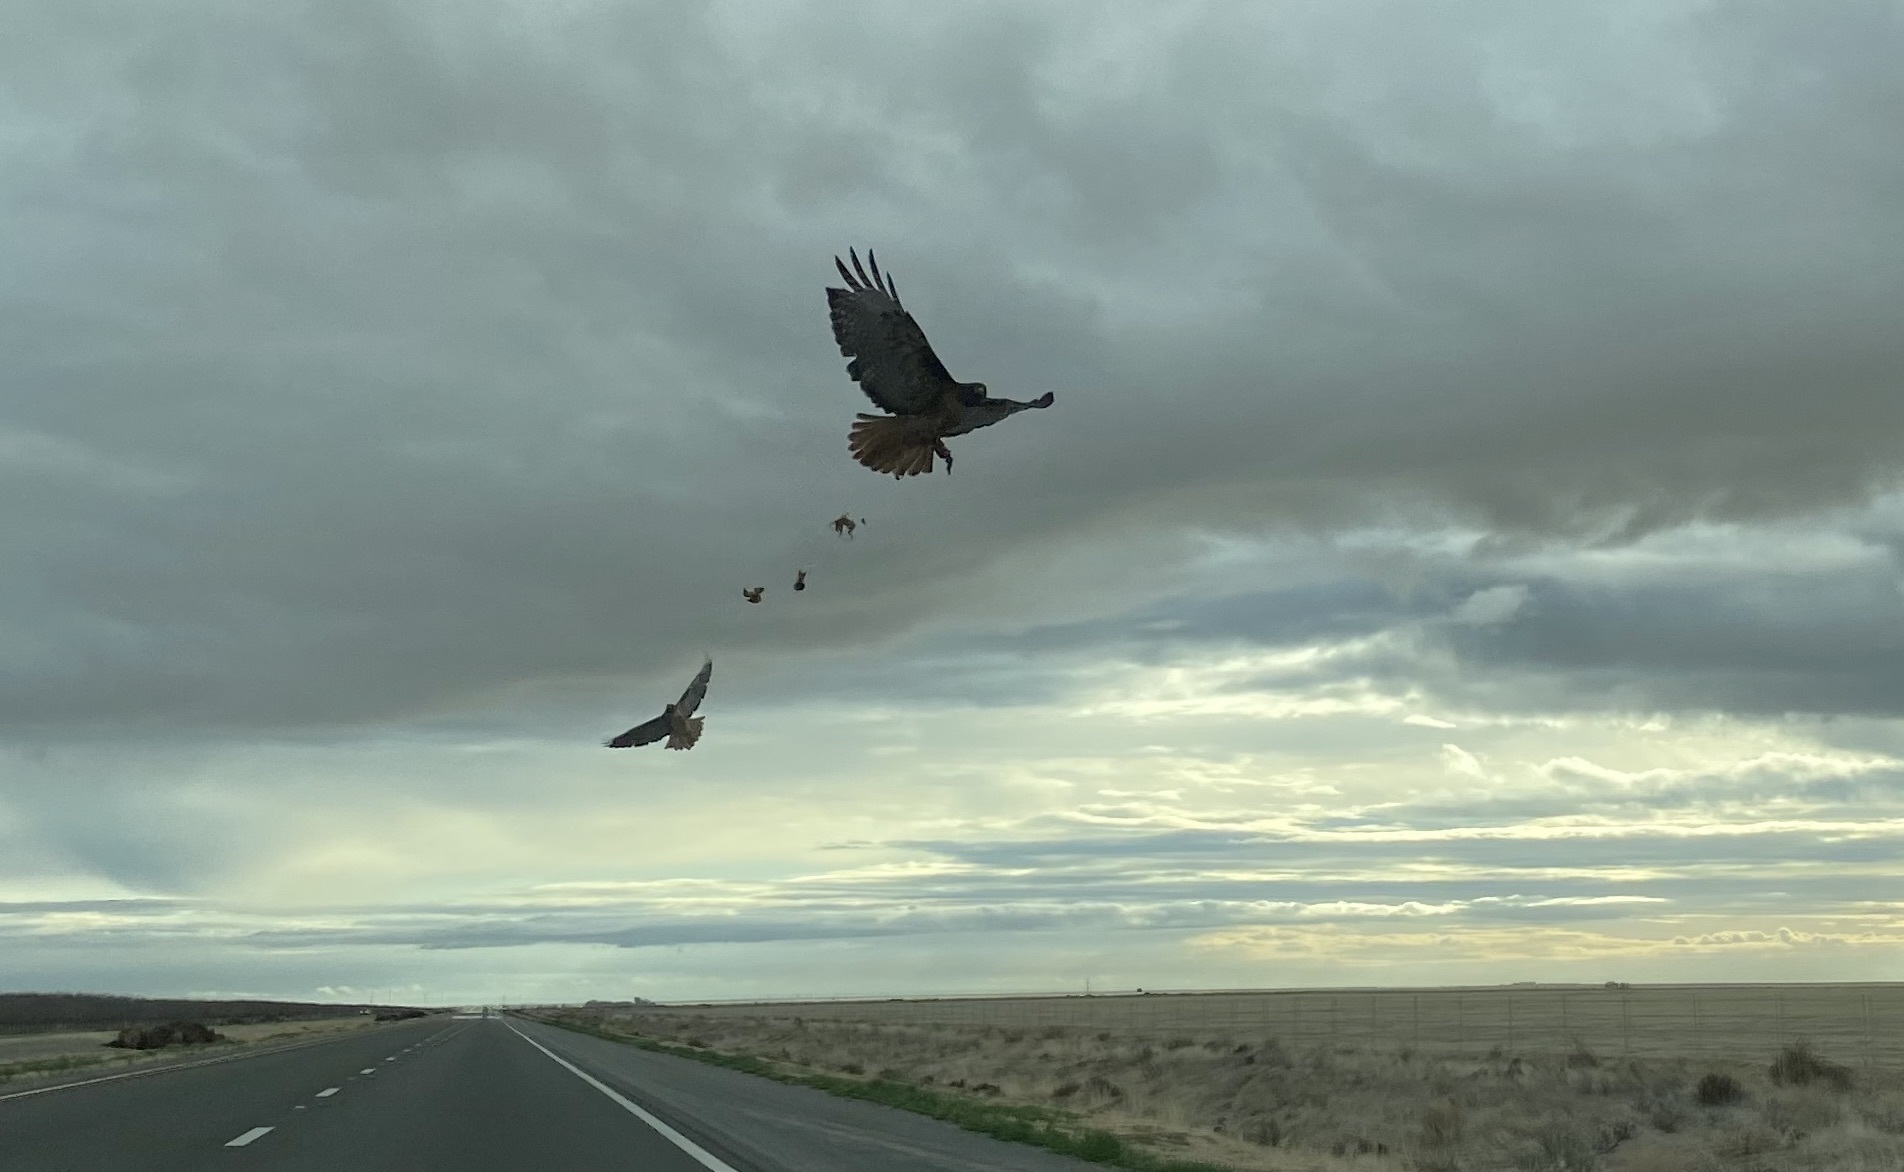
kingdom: Animalia
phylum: Chordata
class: Aves
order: Accipitriformes
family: Accipitridae
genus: Buteo
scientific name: Buteo jamaicensis
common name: Red-tailed hawk
